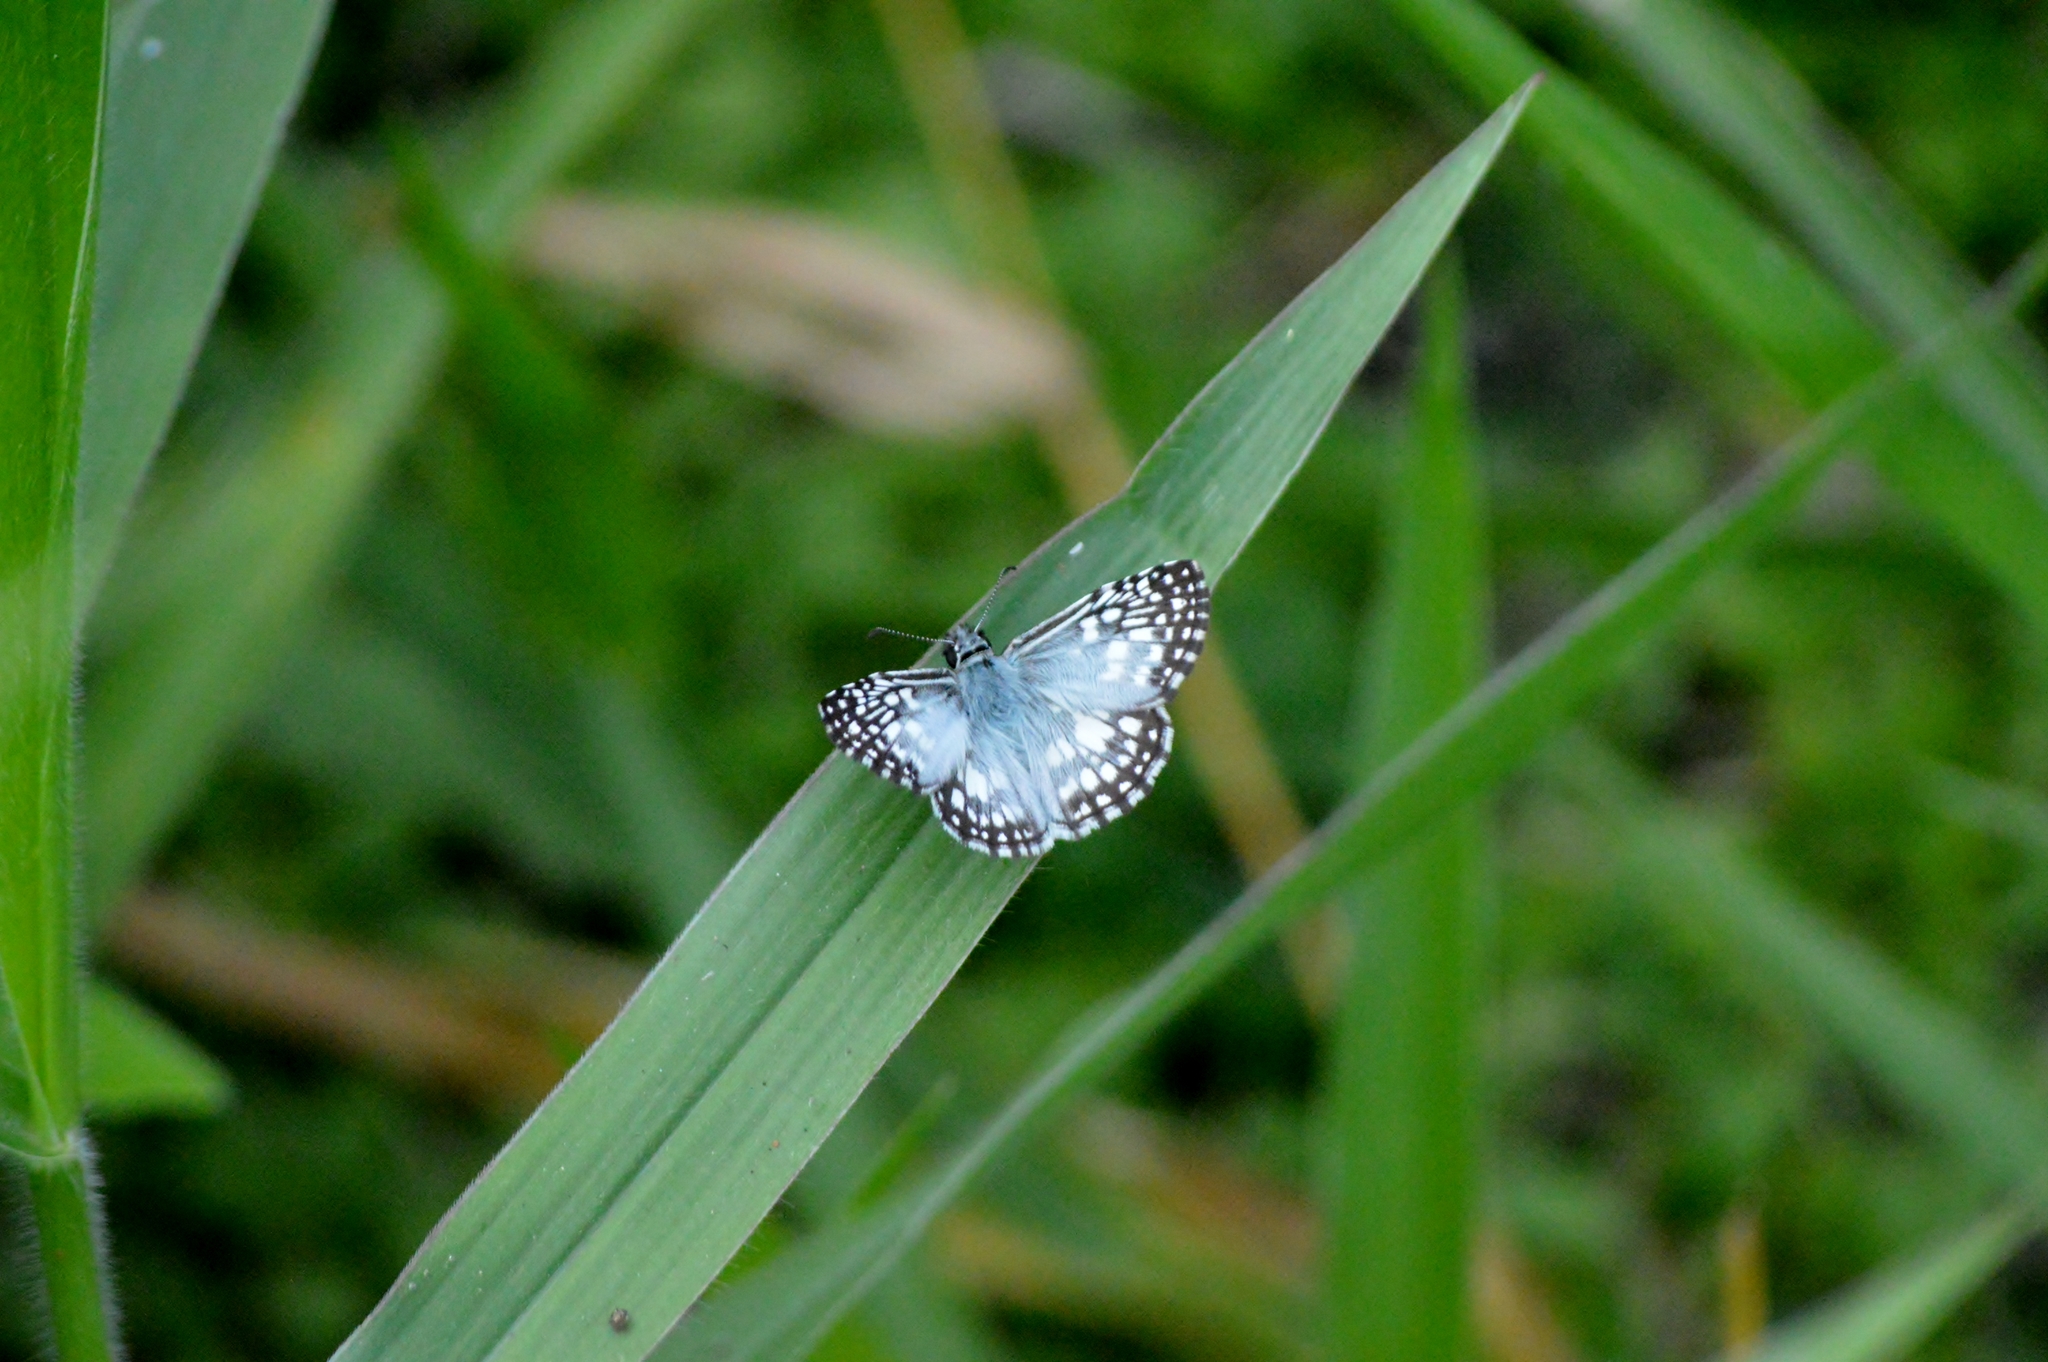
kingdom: Animalia
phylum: Arthropoda
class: Insecta
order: Lepidoptera
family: Hesperiidae
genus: Pyrgus
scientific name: Pyrgus oileus
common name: Tropical checkered-skipper
